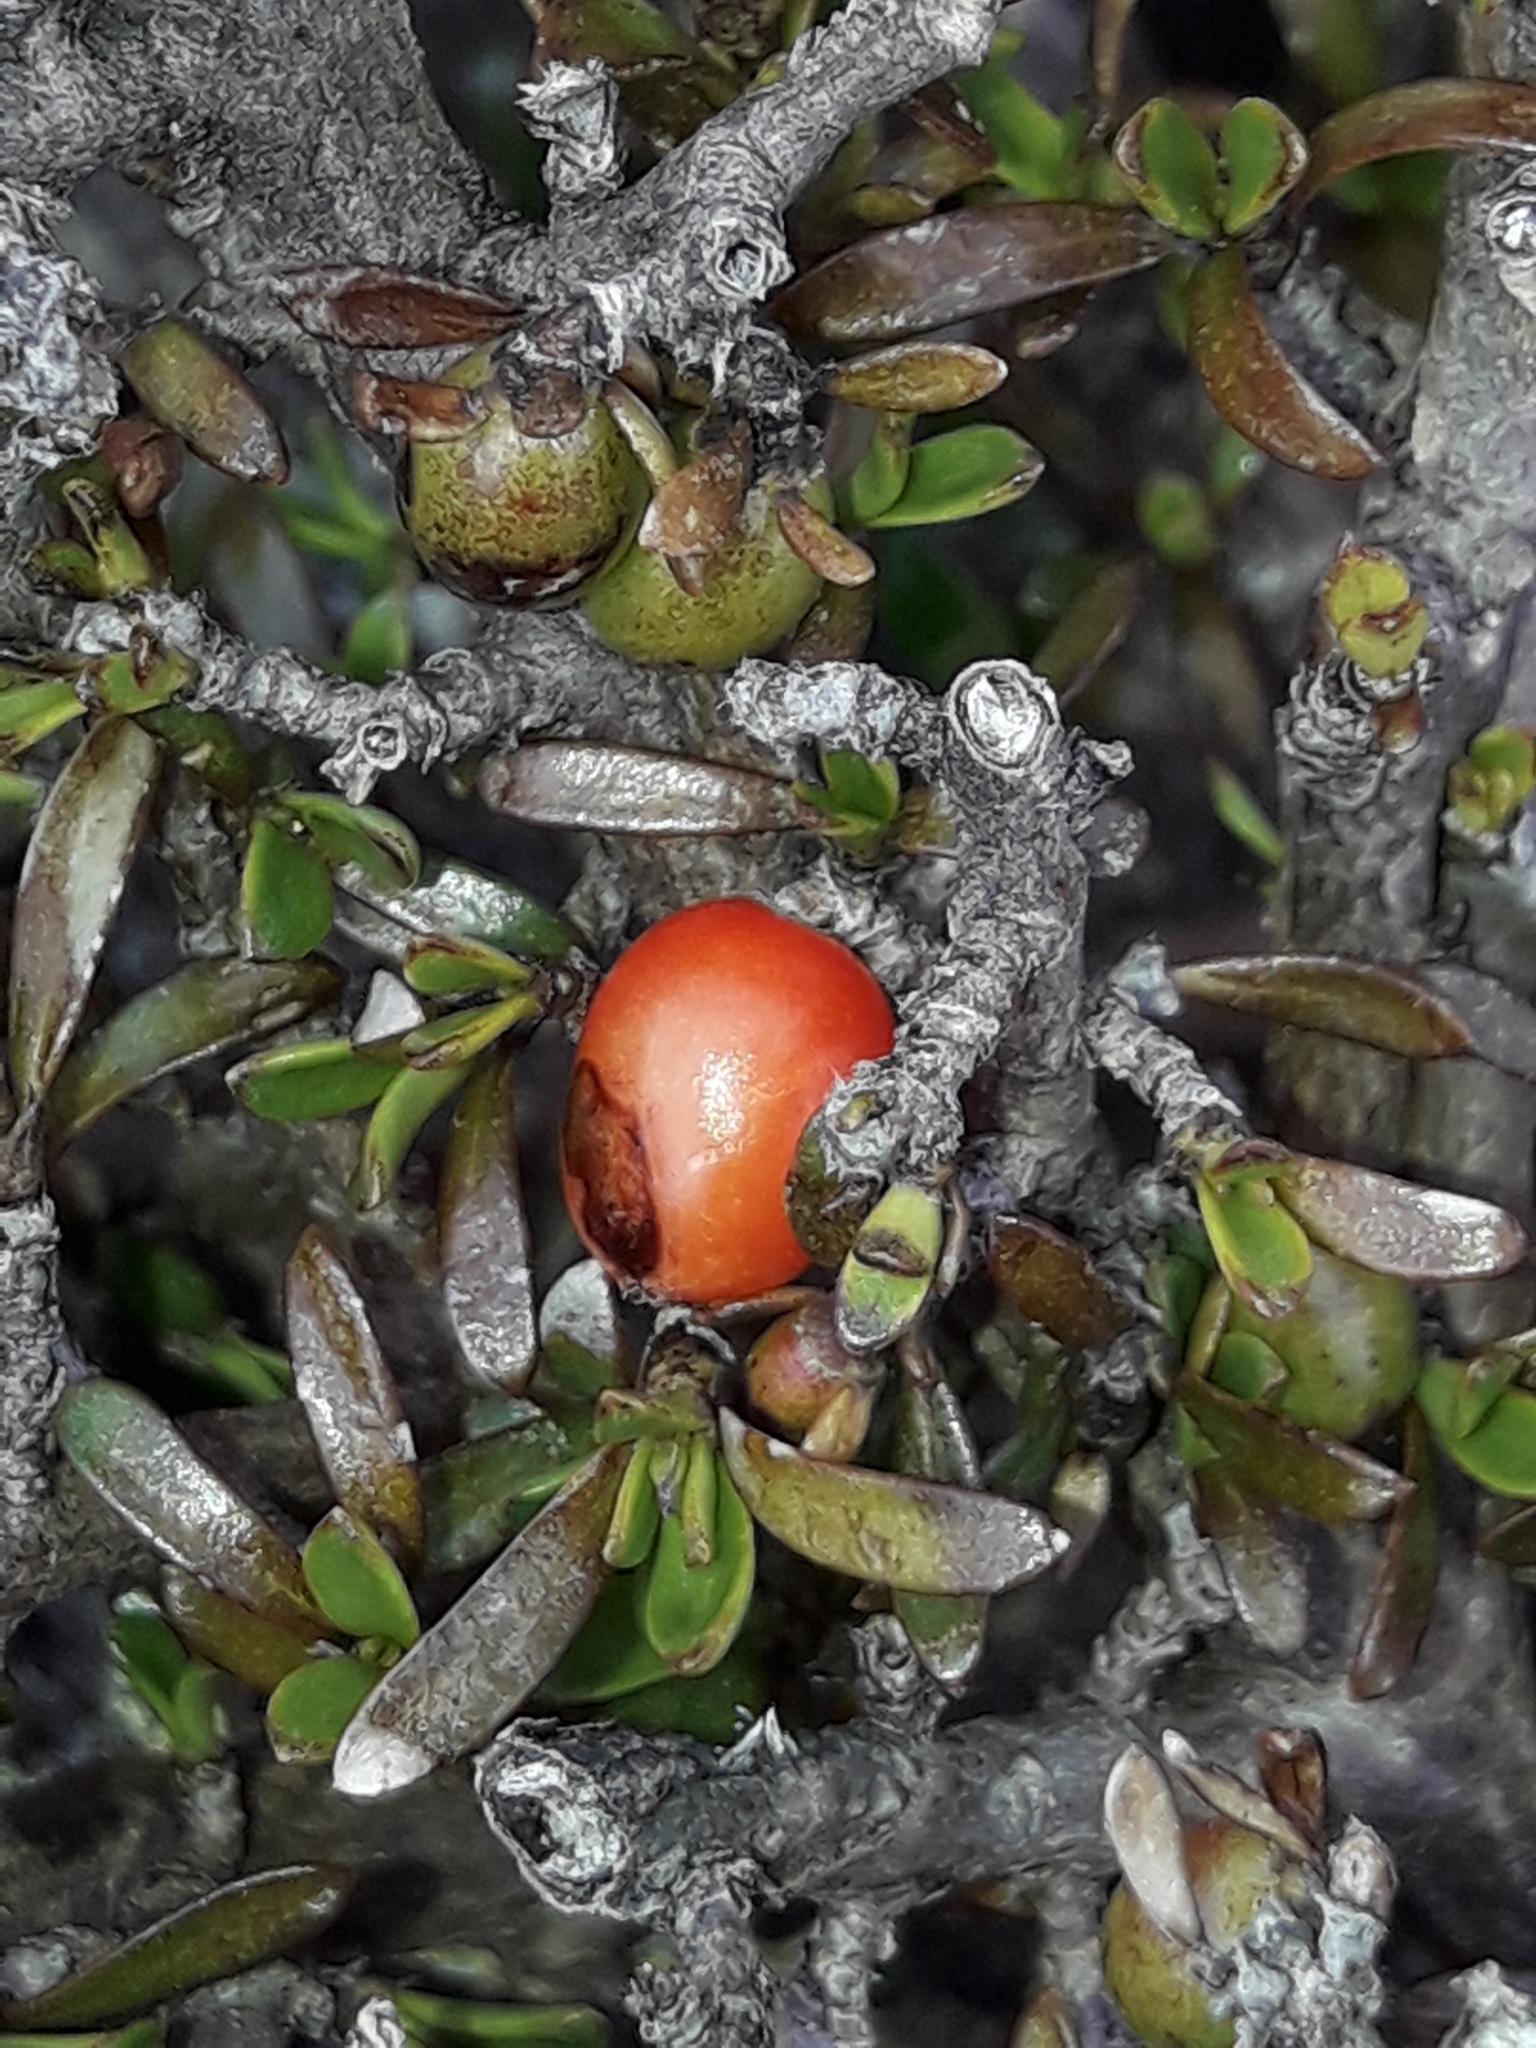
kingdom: Plantae
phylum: Tracheophyta
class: Magnoliopsida
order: Gentianales
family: Rubiaceae
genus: Coprosma
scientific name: Coprosma cheesemanii
